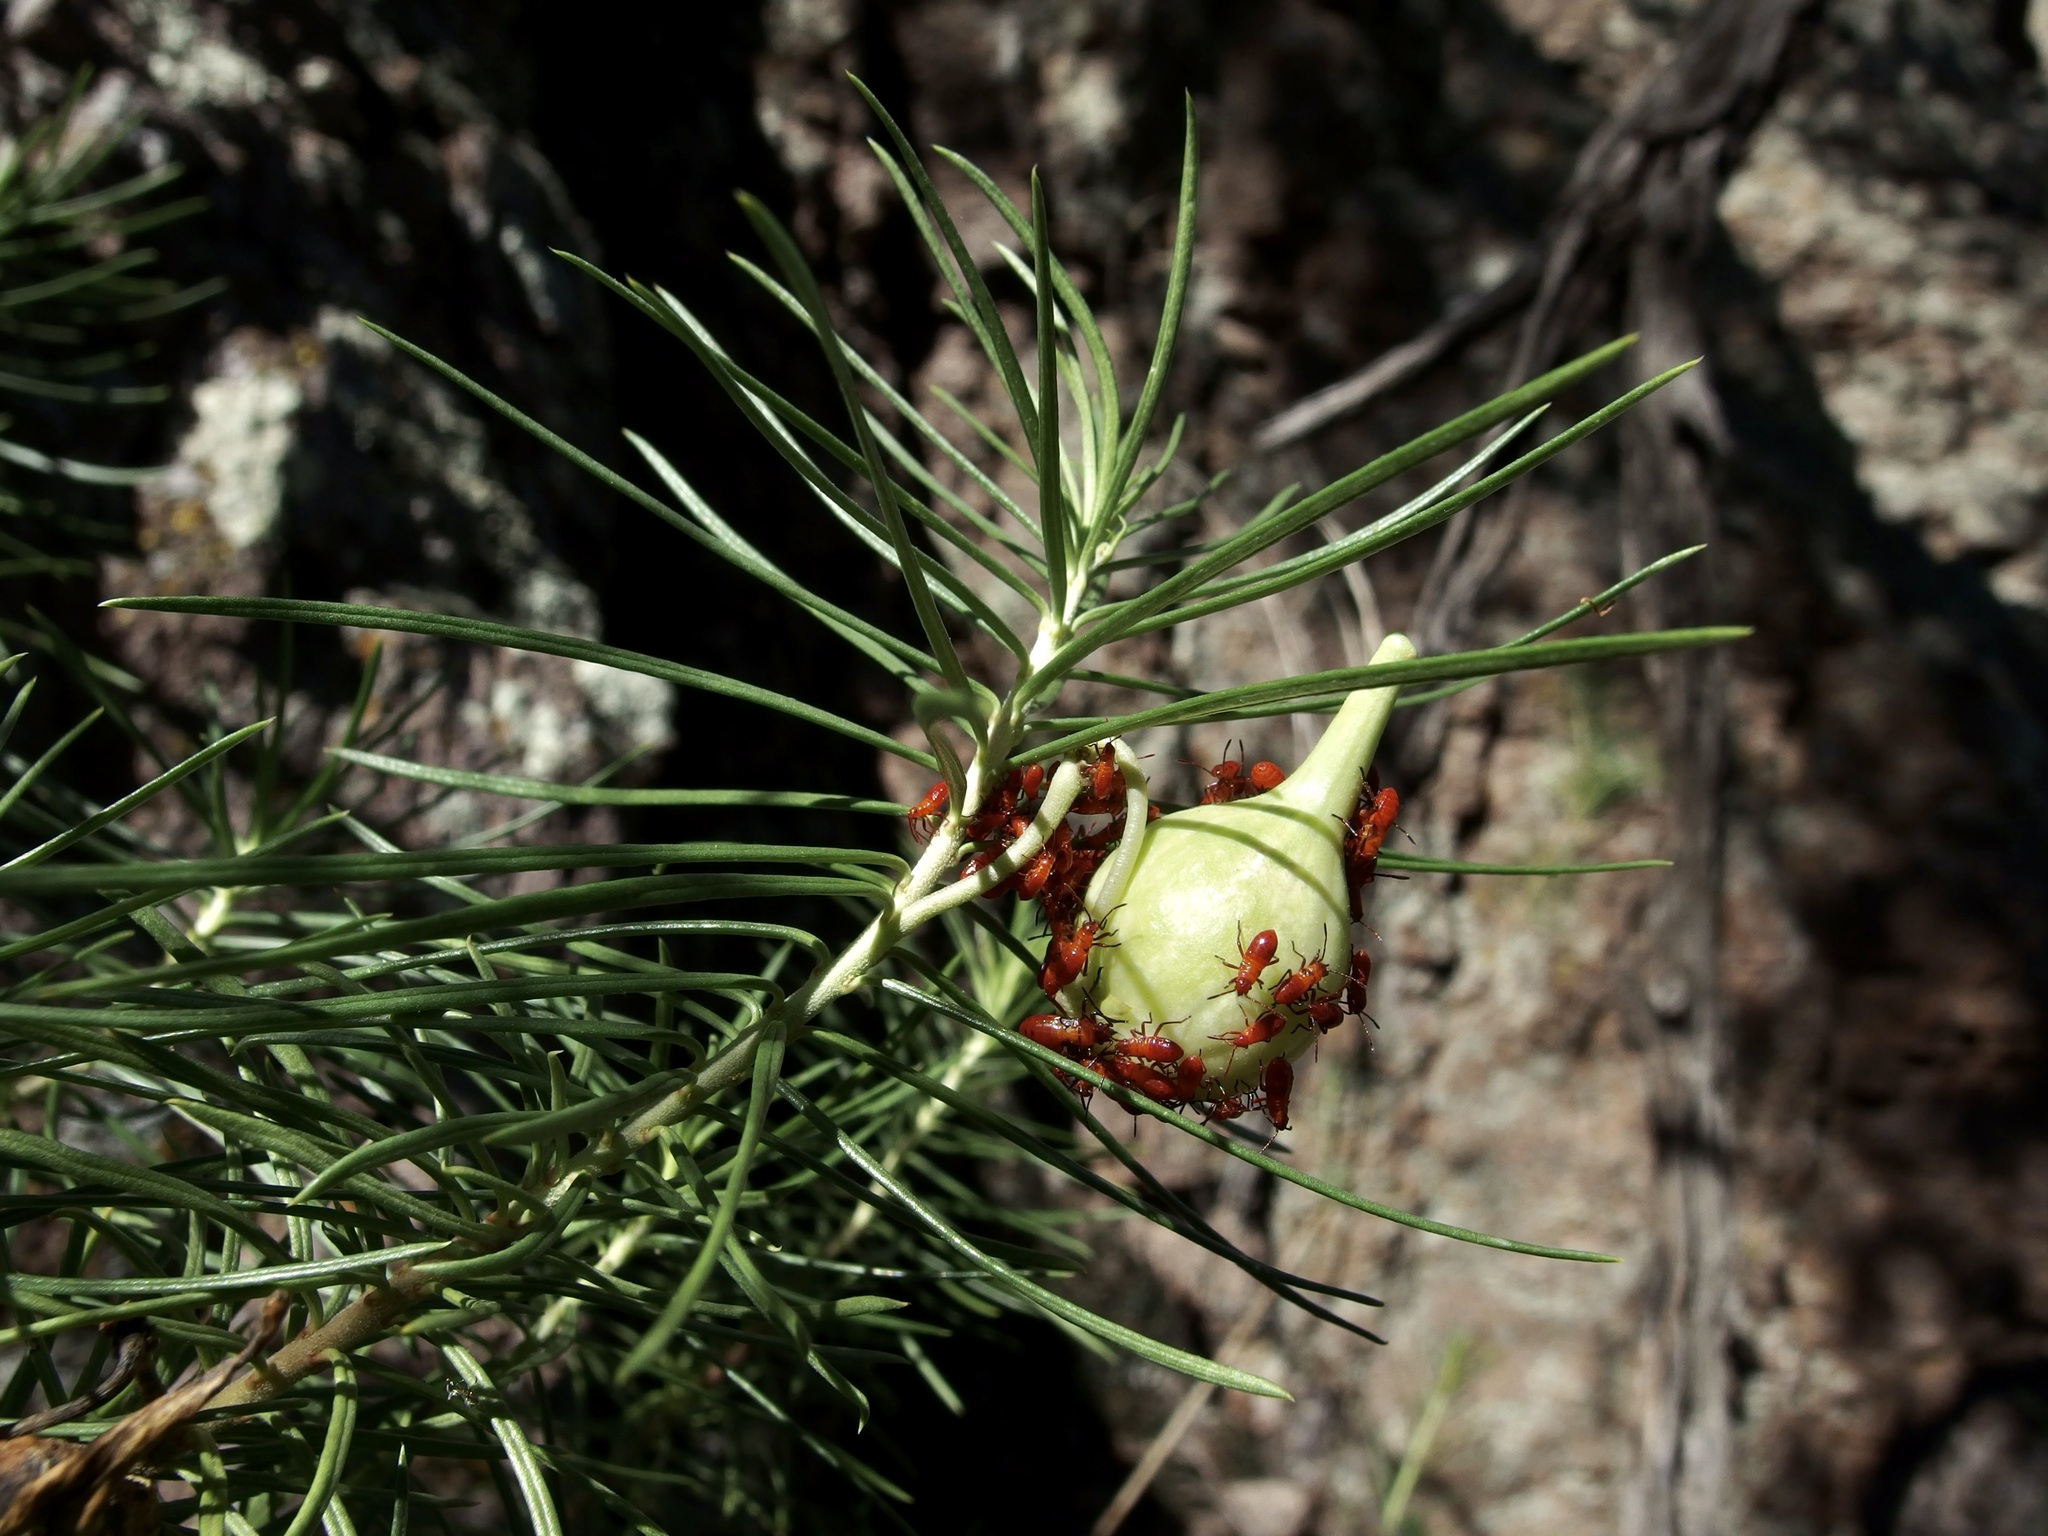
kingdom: Plantae
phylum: Tracheophyta
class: Magnoliopsida
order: Gentianales
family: Apocynaceae
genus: Asclepias
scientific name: Asclepias linaria
